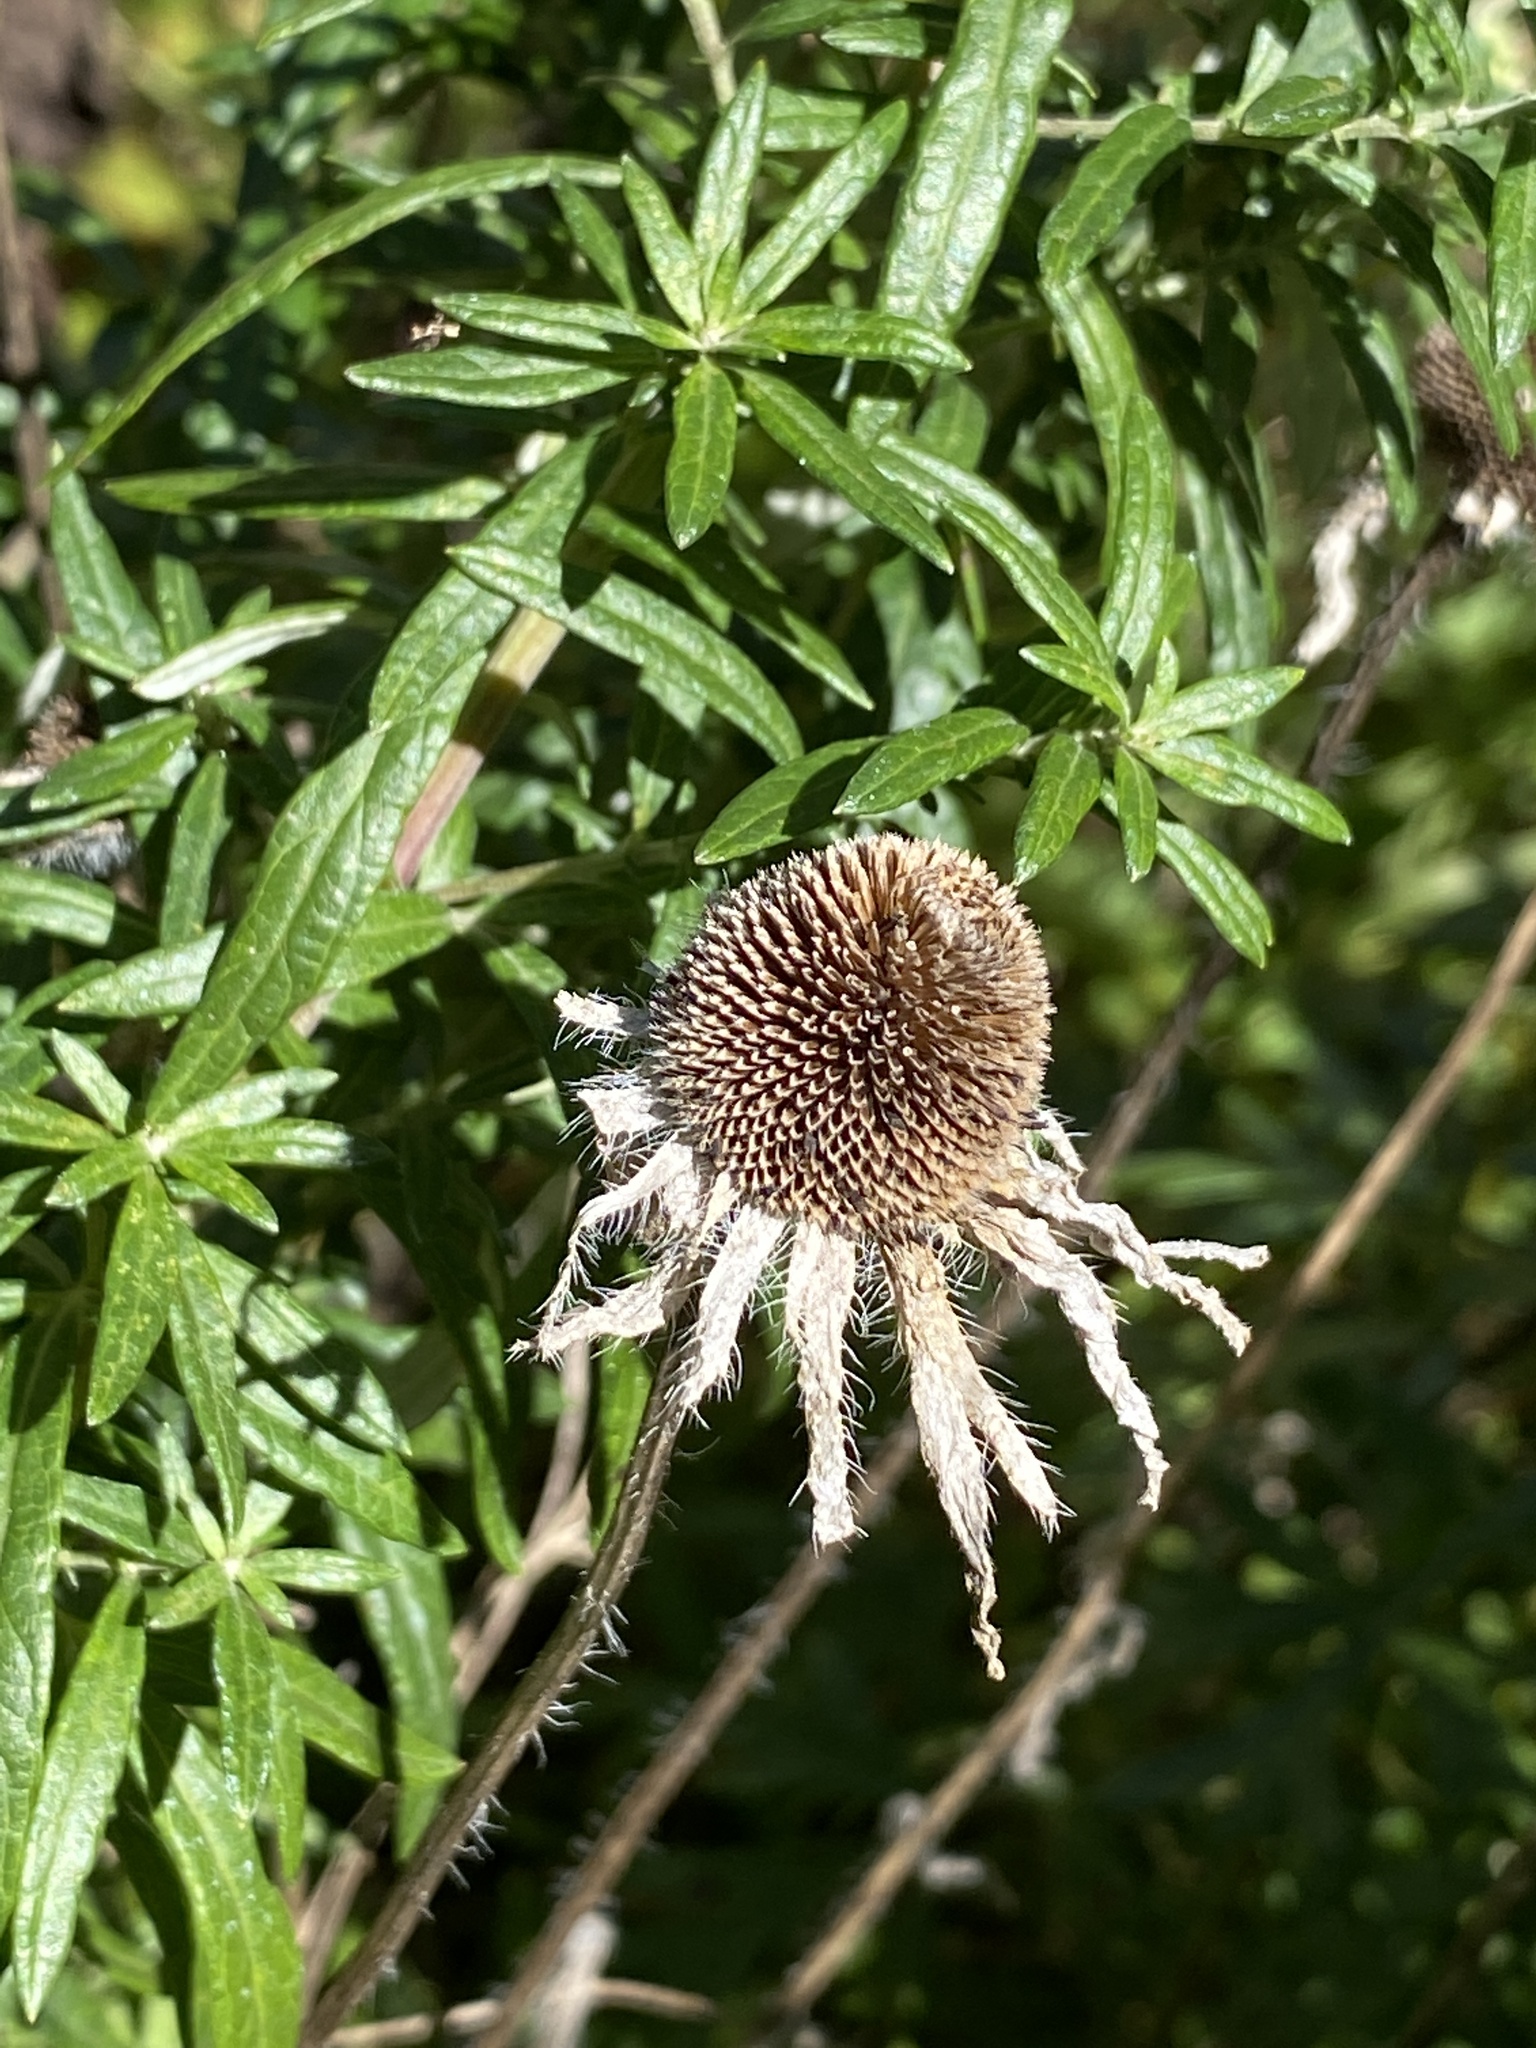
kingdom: Plantae
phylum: Tracheophyta
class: Magnoliopsida
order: Asterales
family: Asteraceae
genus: Rudbeckia
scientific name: Rudbeckia hirta
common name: Black-eyed-susan
